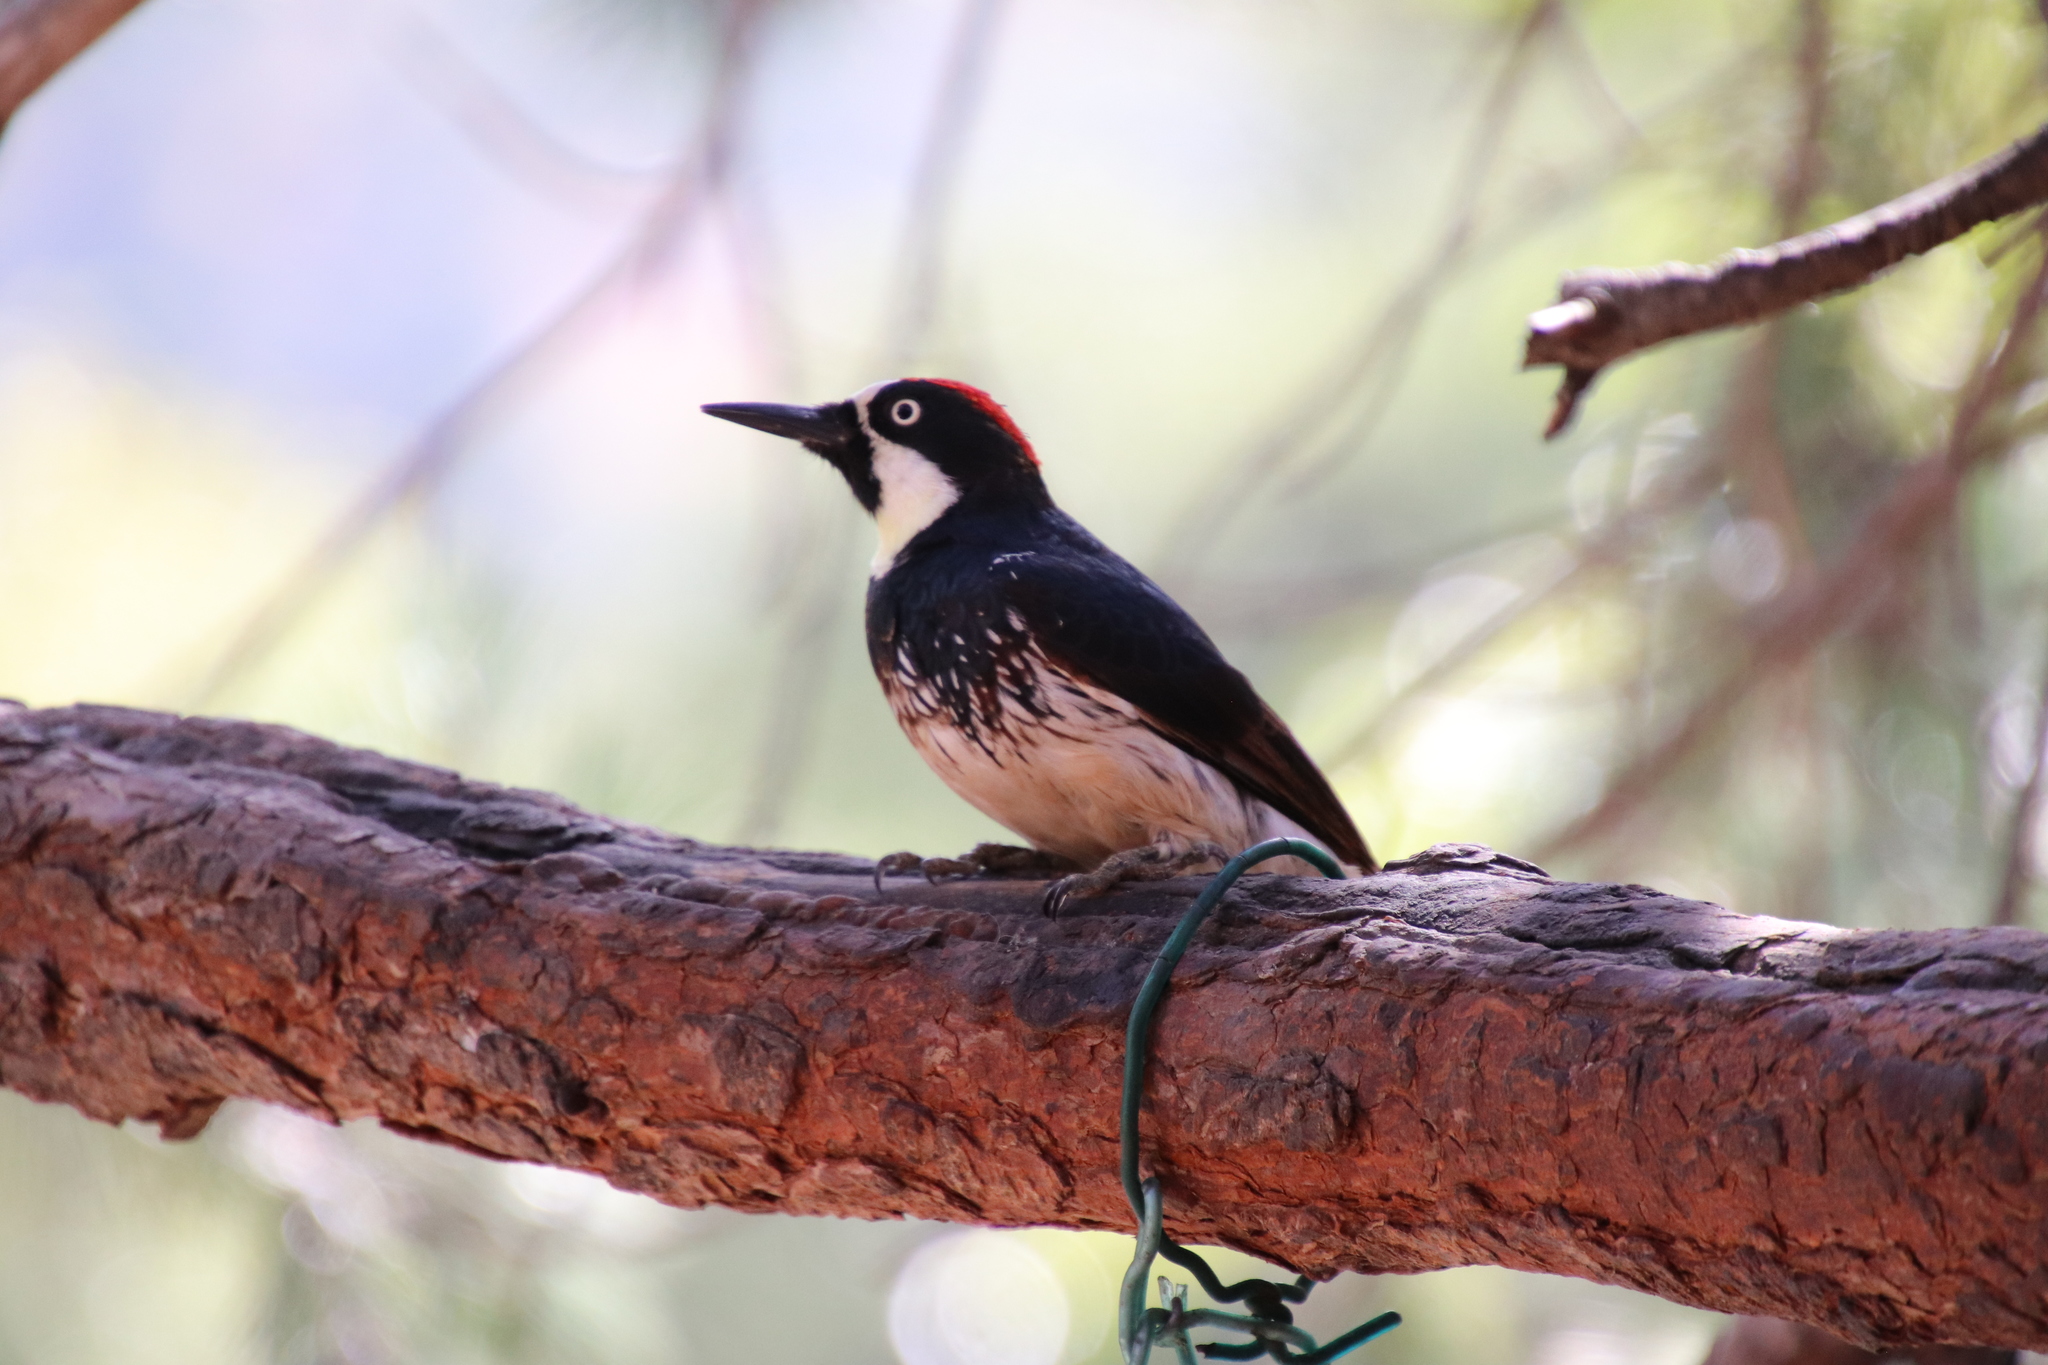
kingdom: Animalia
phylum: Chordata
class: Aves
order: Piciformes
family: Picidae
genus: Melanerpes
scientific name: Melanerpes formicivorus
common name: Acorn woodpecker
